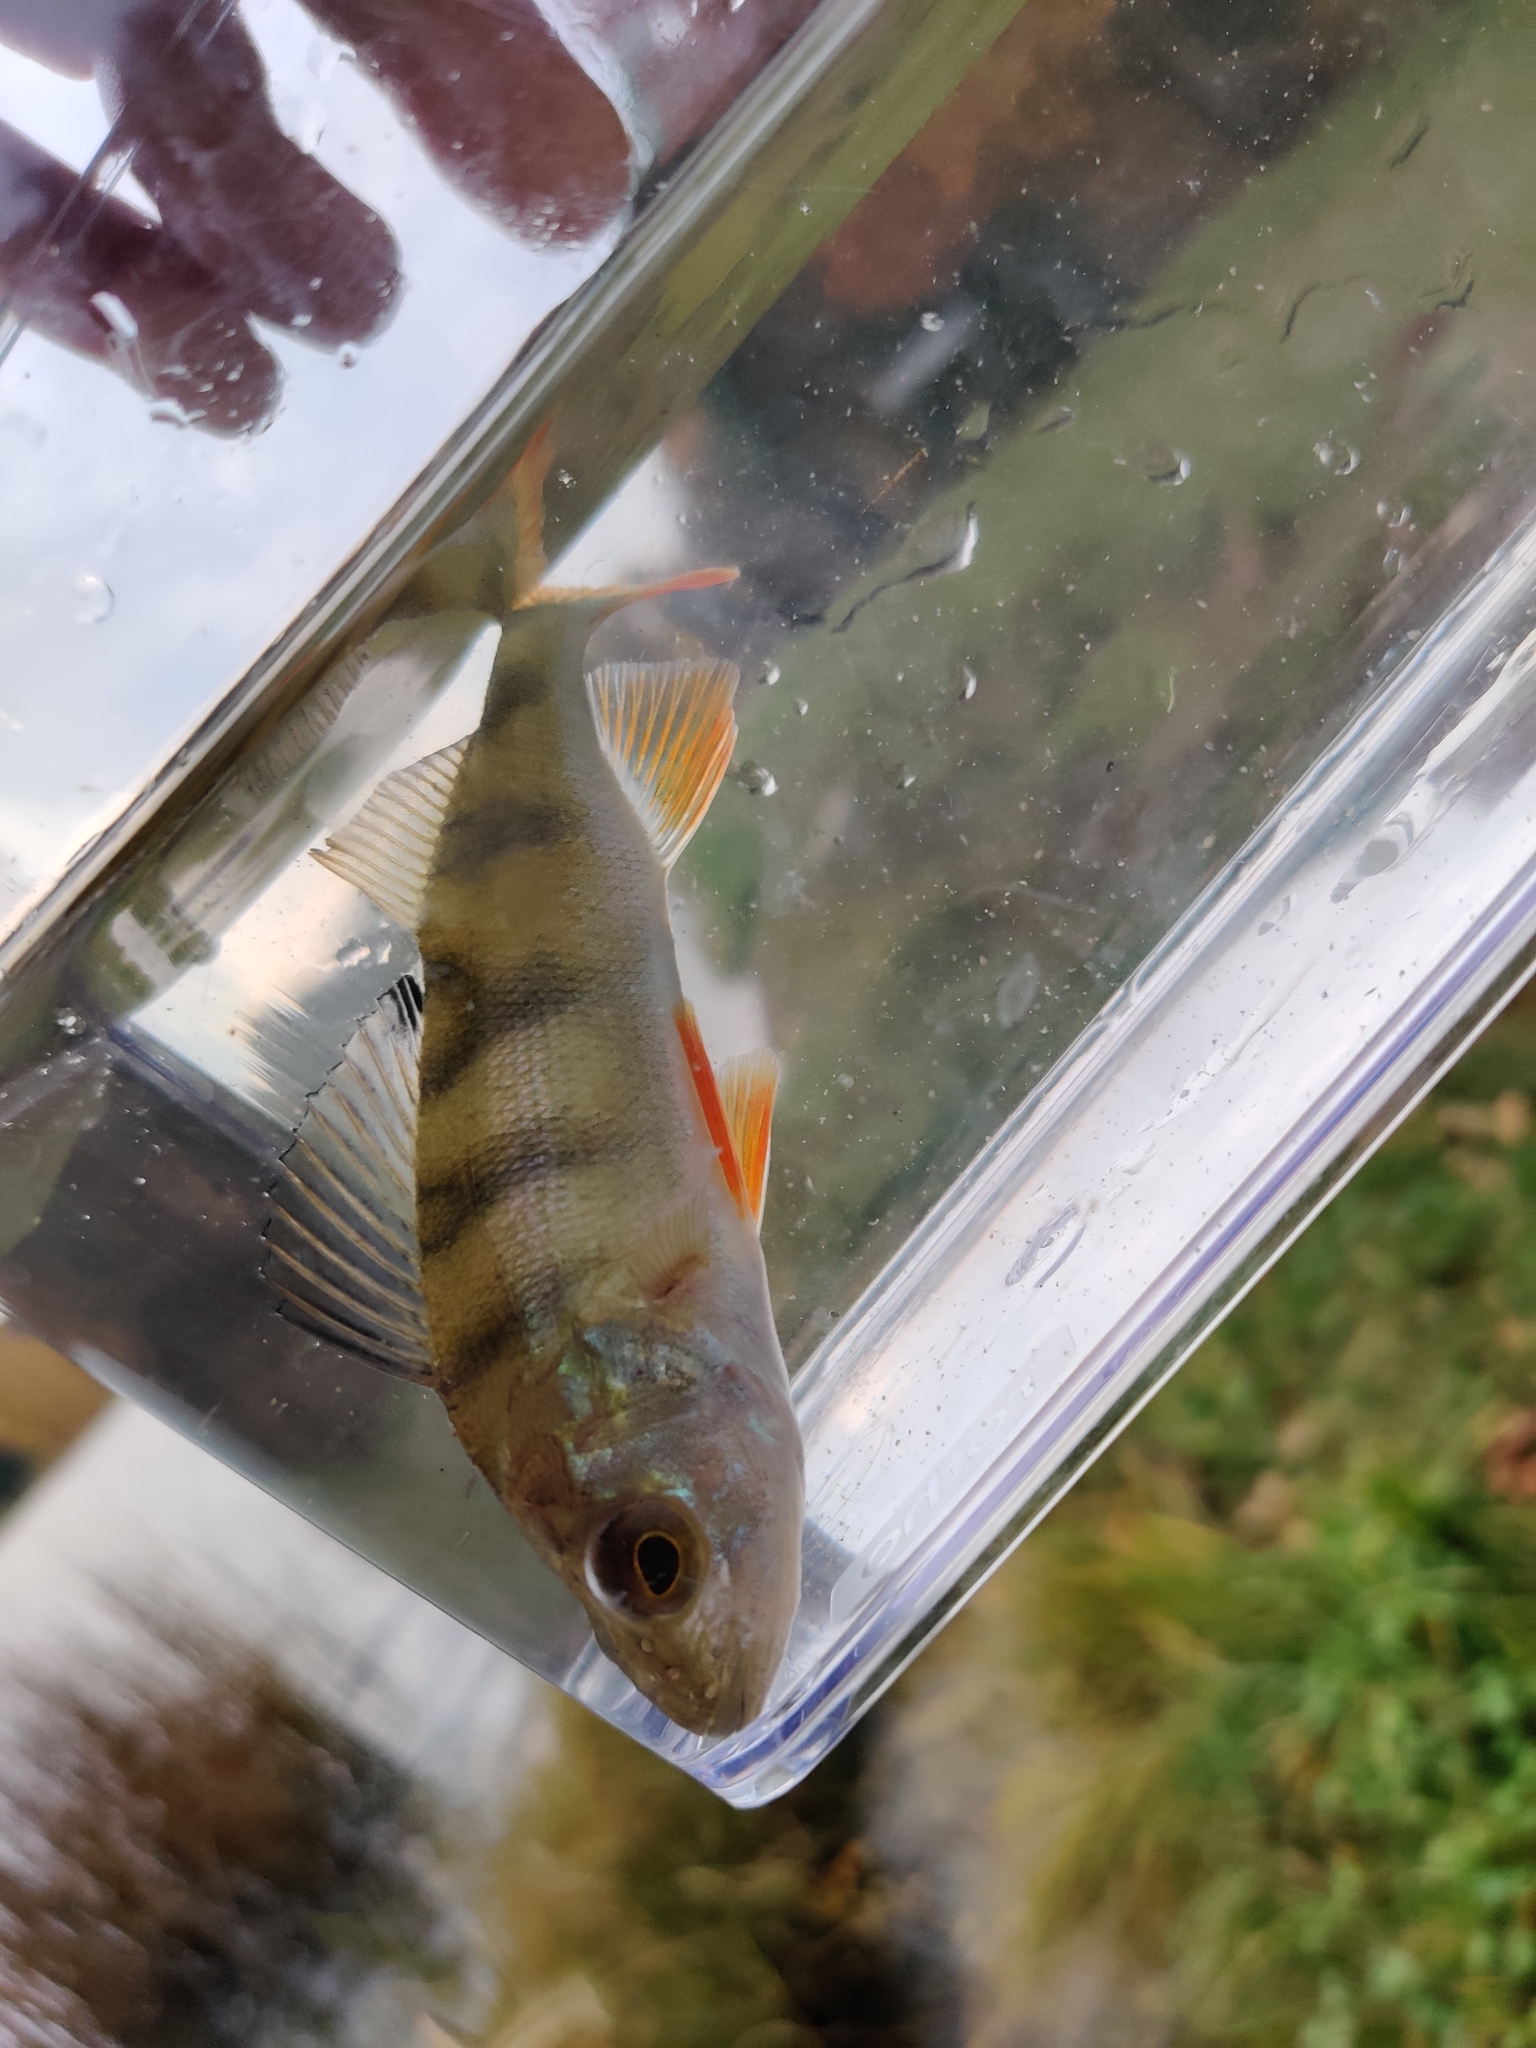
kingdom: Animalia
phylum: Chordata
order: Perciformes
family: Percidae
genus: Perca
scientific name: Perca fluviatilis
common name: Perch
